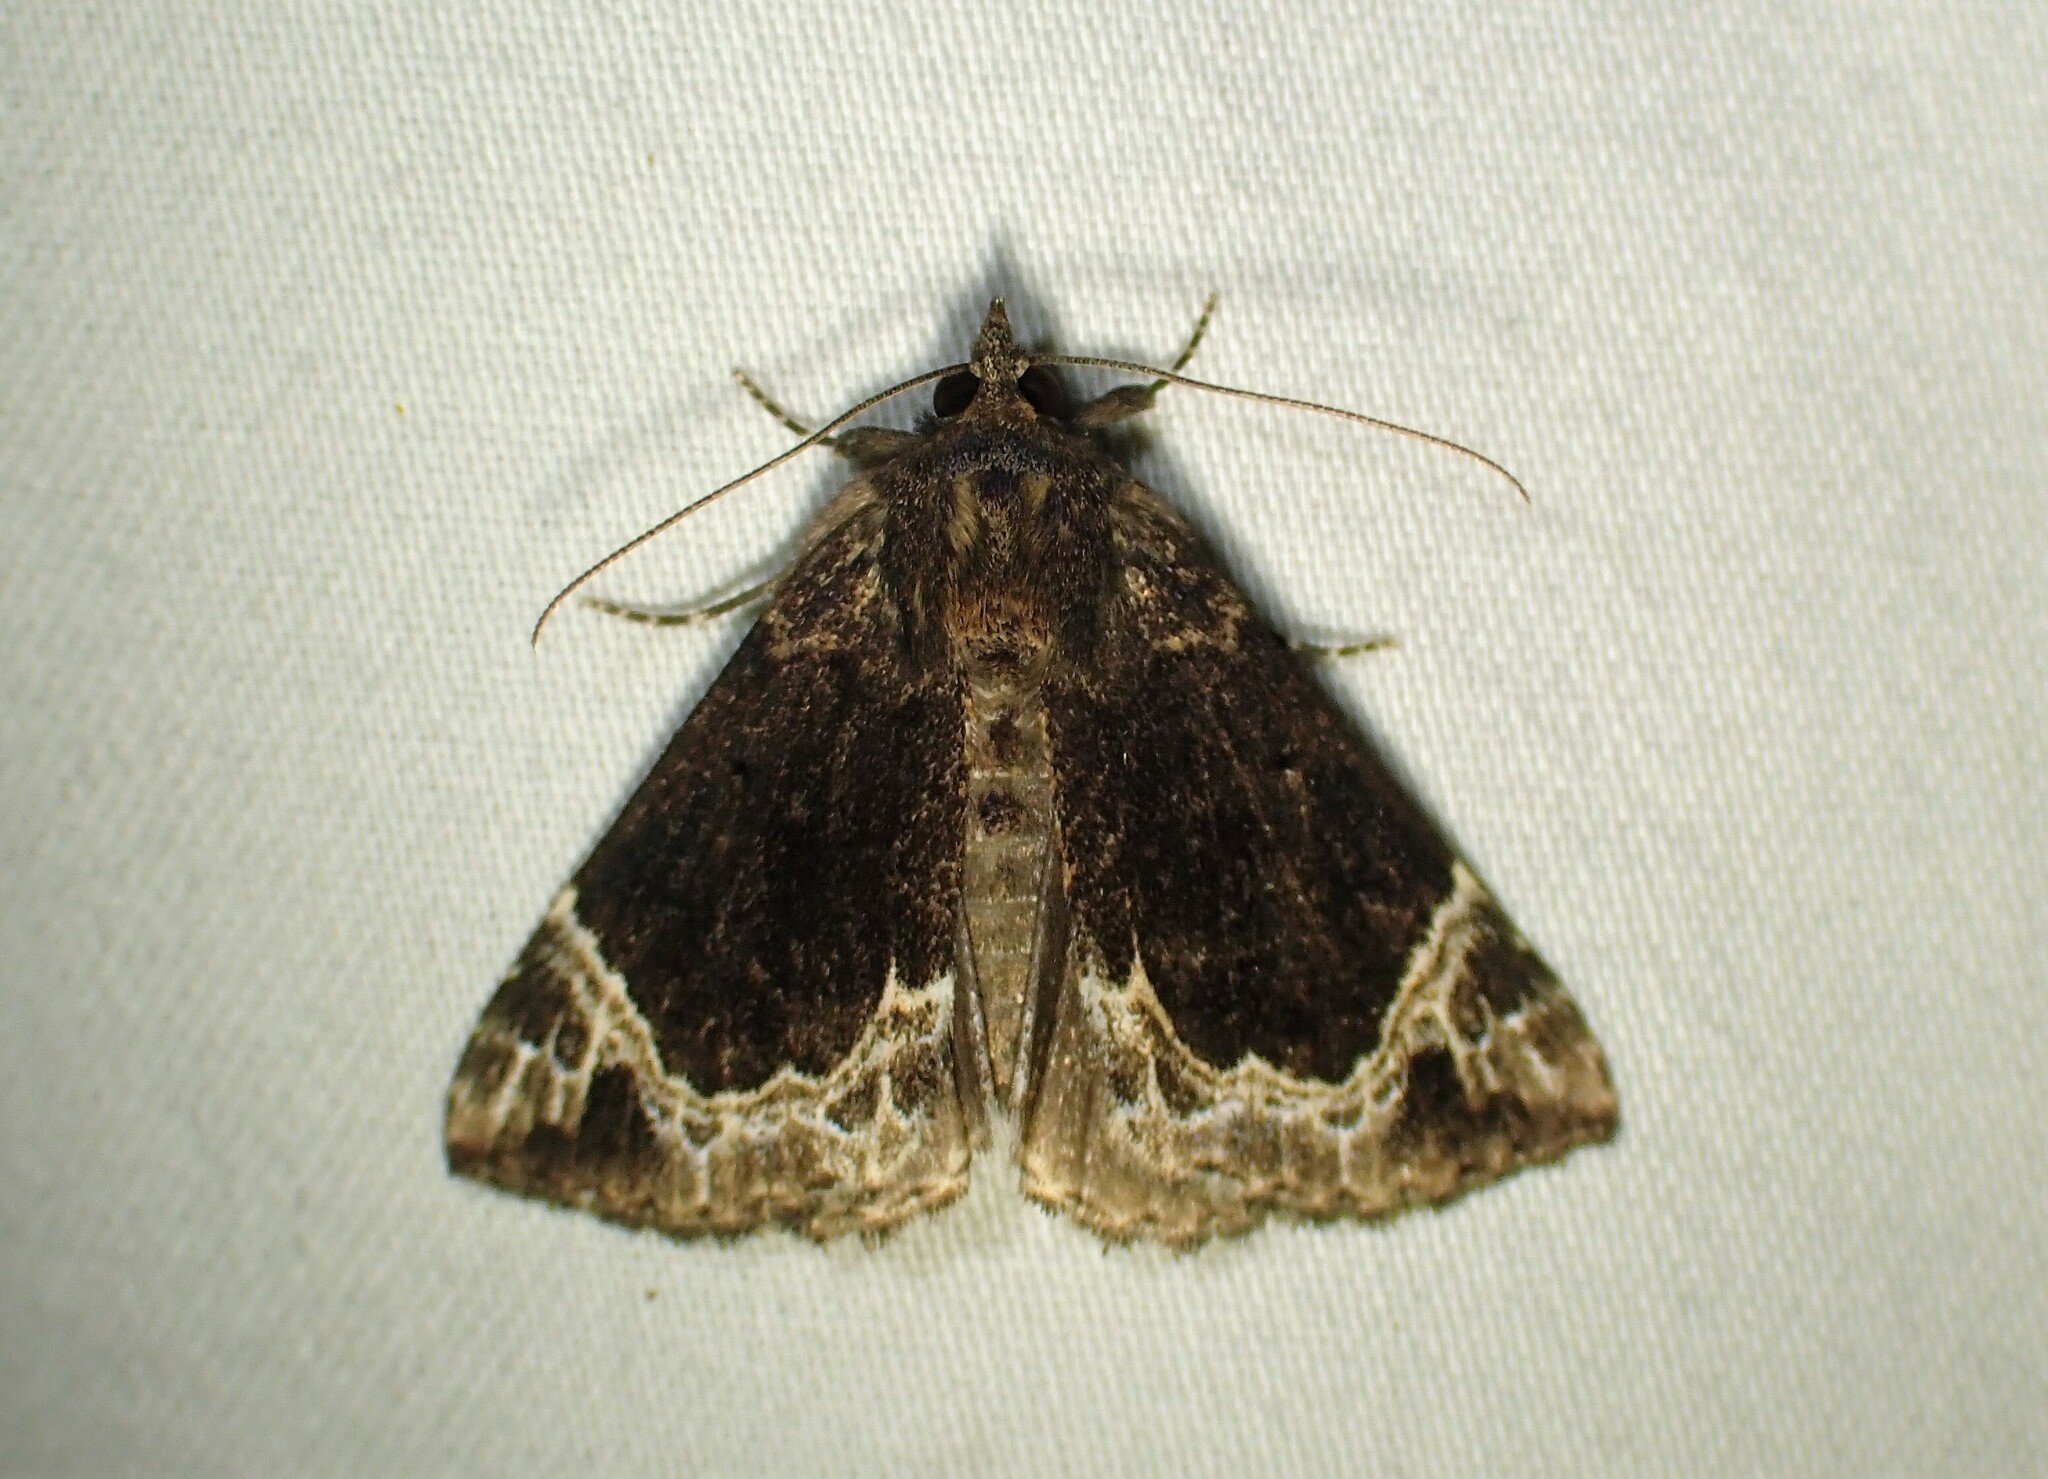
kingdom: Animalia
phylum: Arthropoda
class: Insecta
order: Lepidoptera
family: Erebidae
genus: Hypena
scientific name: Hypena abalienalis
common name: White-lined snout
